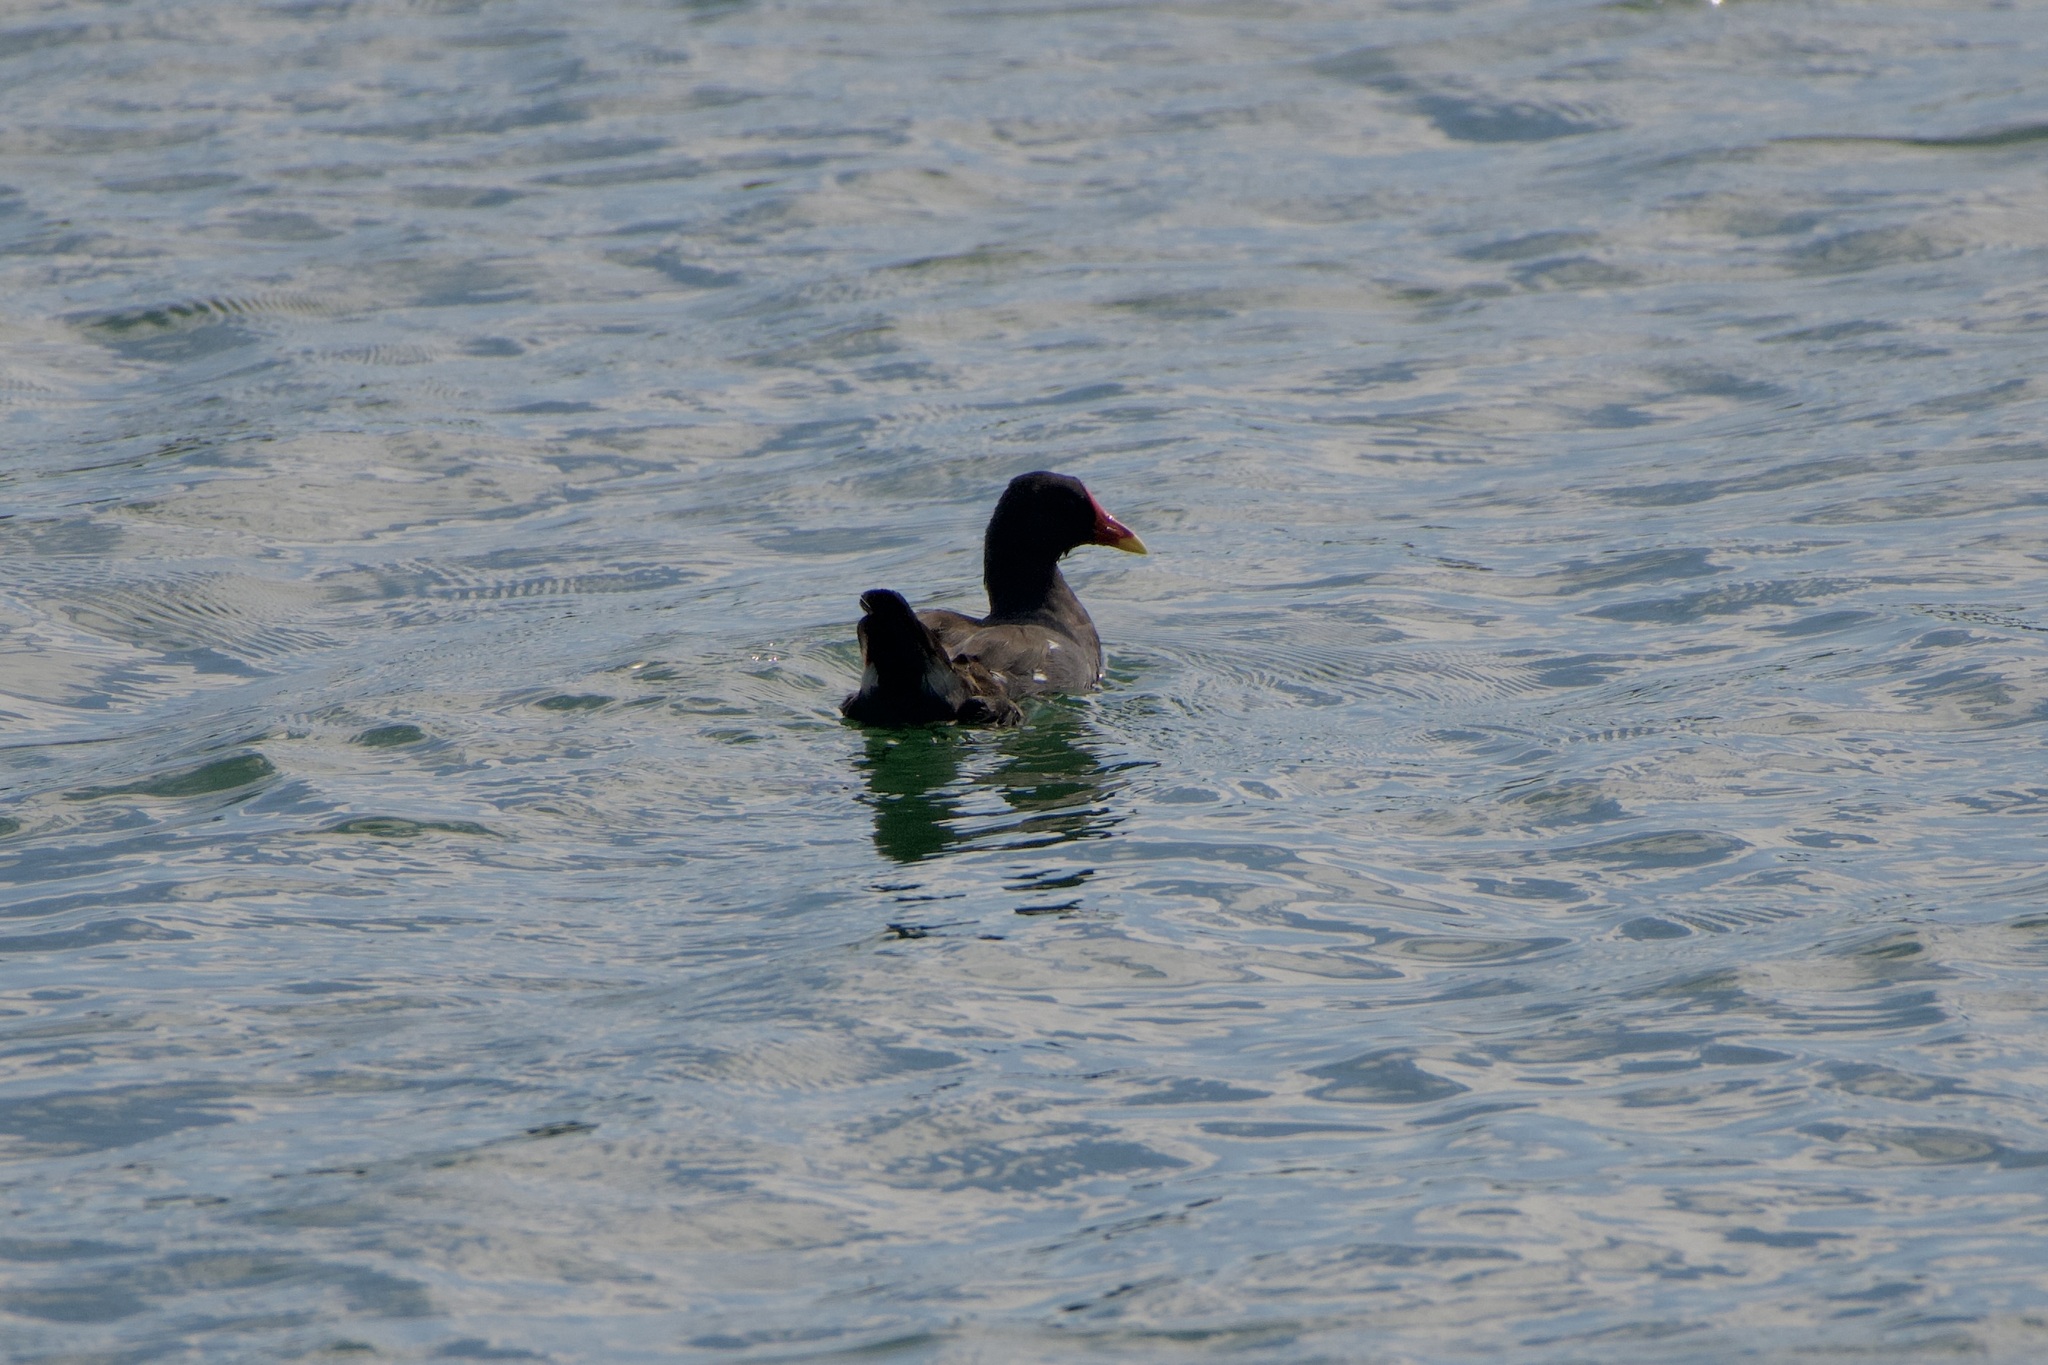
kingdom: Animalia
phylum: Chordata
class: Aves
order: Gruiformes
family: Rallidae
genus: Gallinula
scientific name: Gallinula chloropus
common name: Common moorhen
